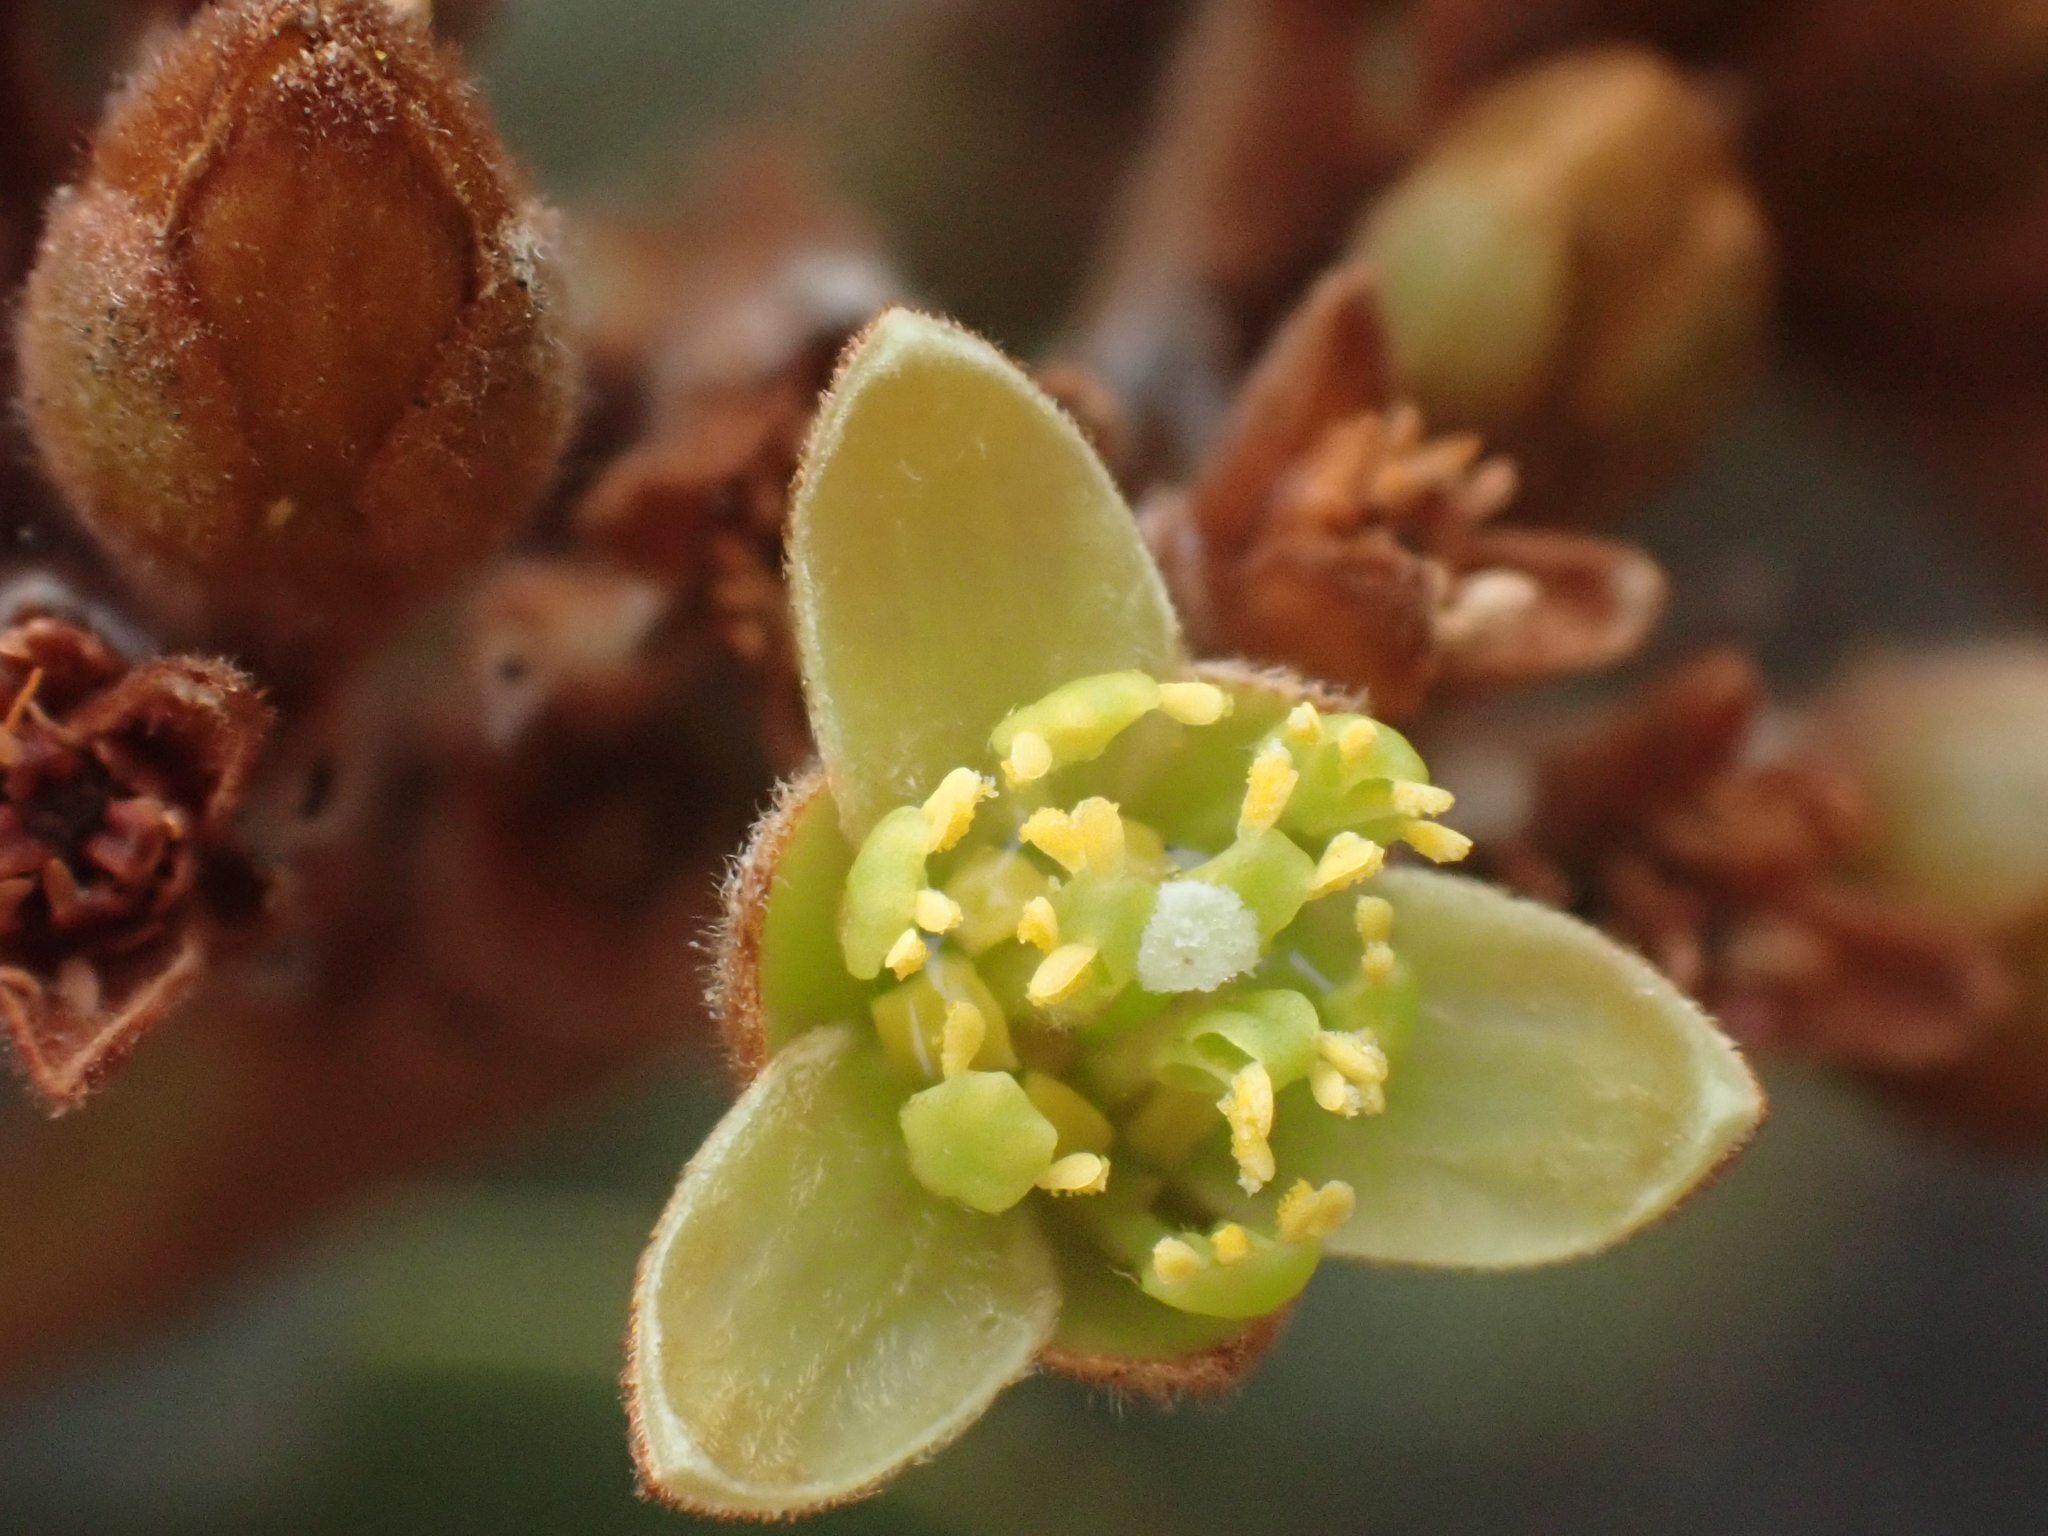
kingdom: Plantae
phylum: Tracheophyta
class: Magnoliopsida
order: Laurales
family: Lauraceae
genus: Persea
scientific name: Persea obtusifolia
